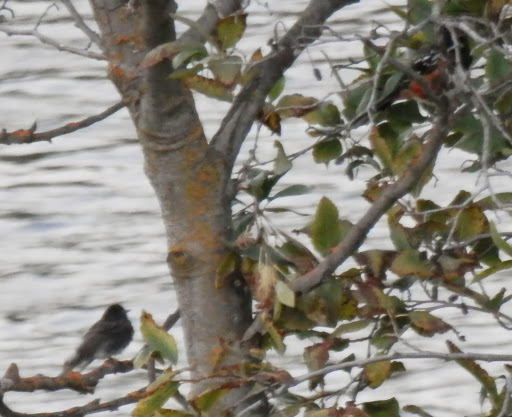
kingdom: Animalia
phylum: Chordata
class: Aves
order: Passeriformes
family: Passerellidae
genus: Pipilo
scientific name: Pipilo maculatus
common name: Spotted towhee
